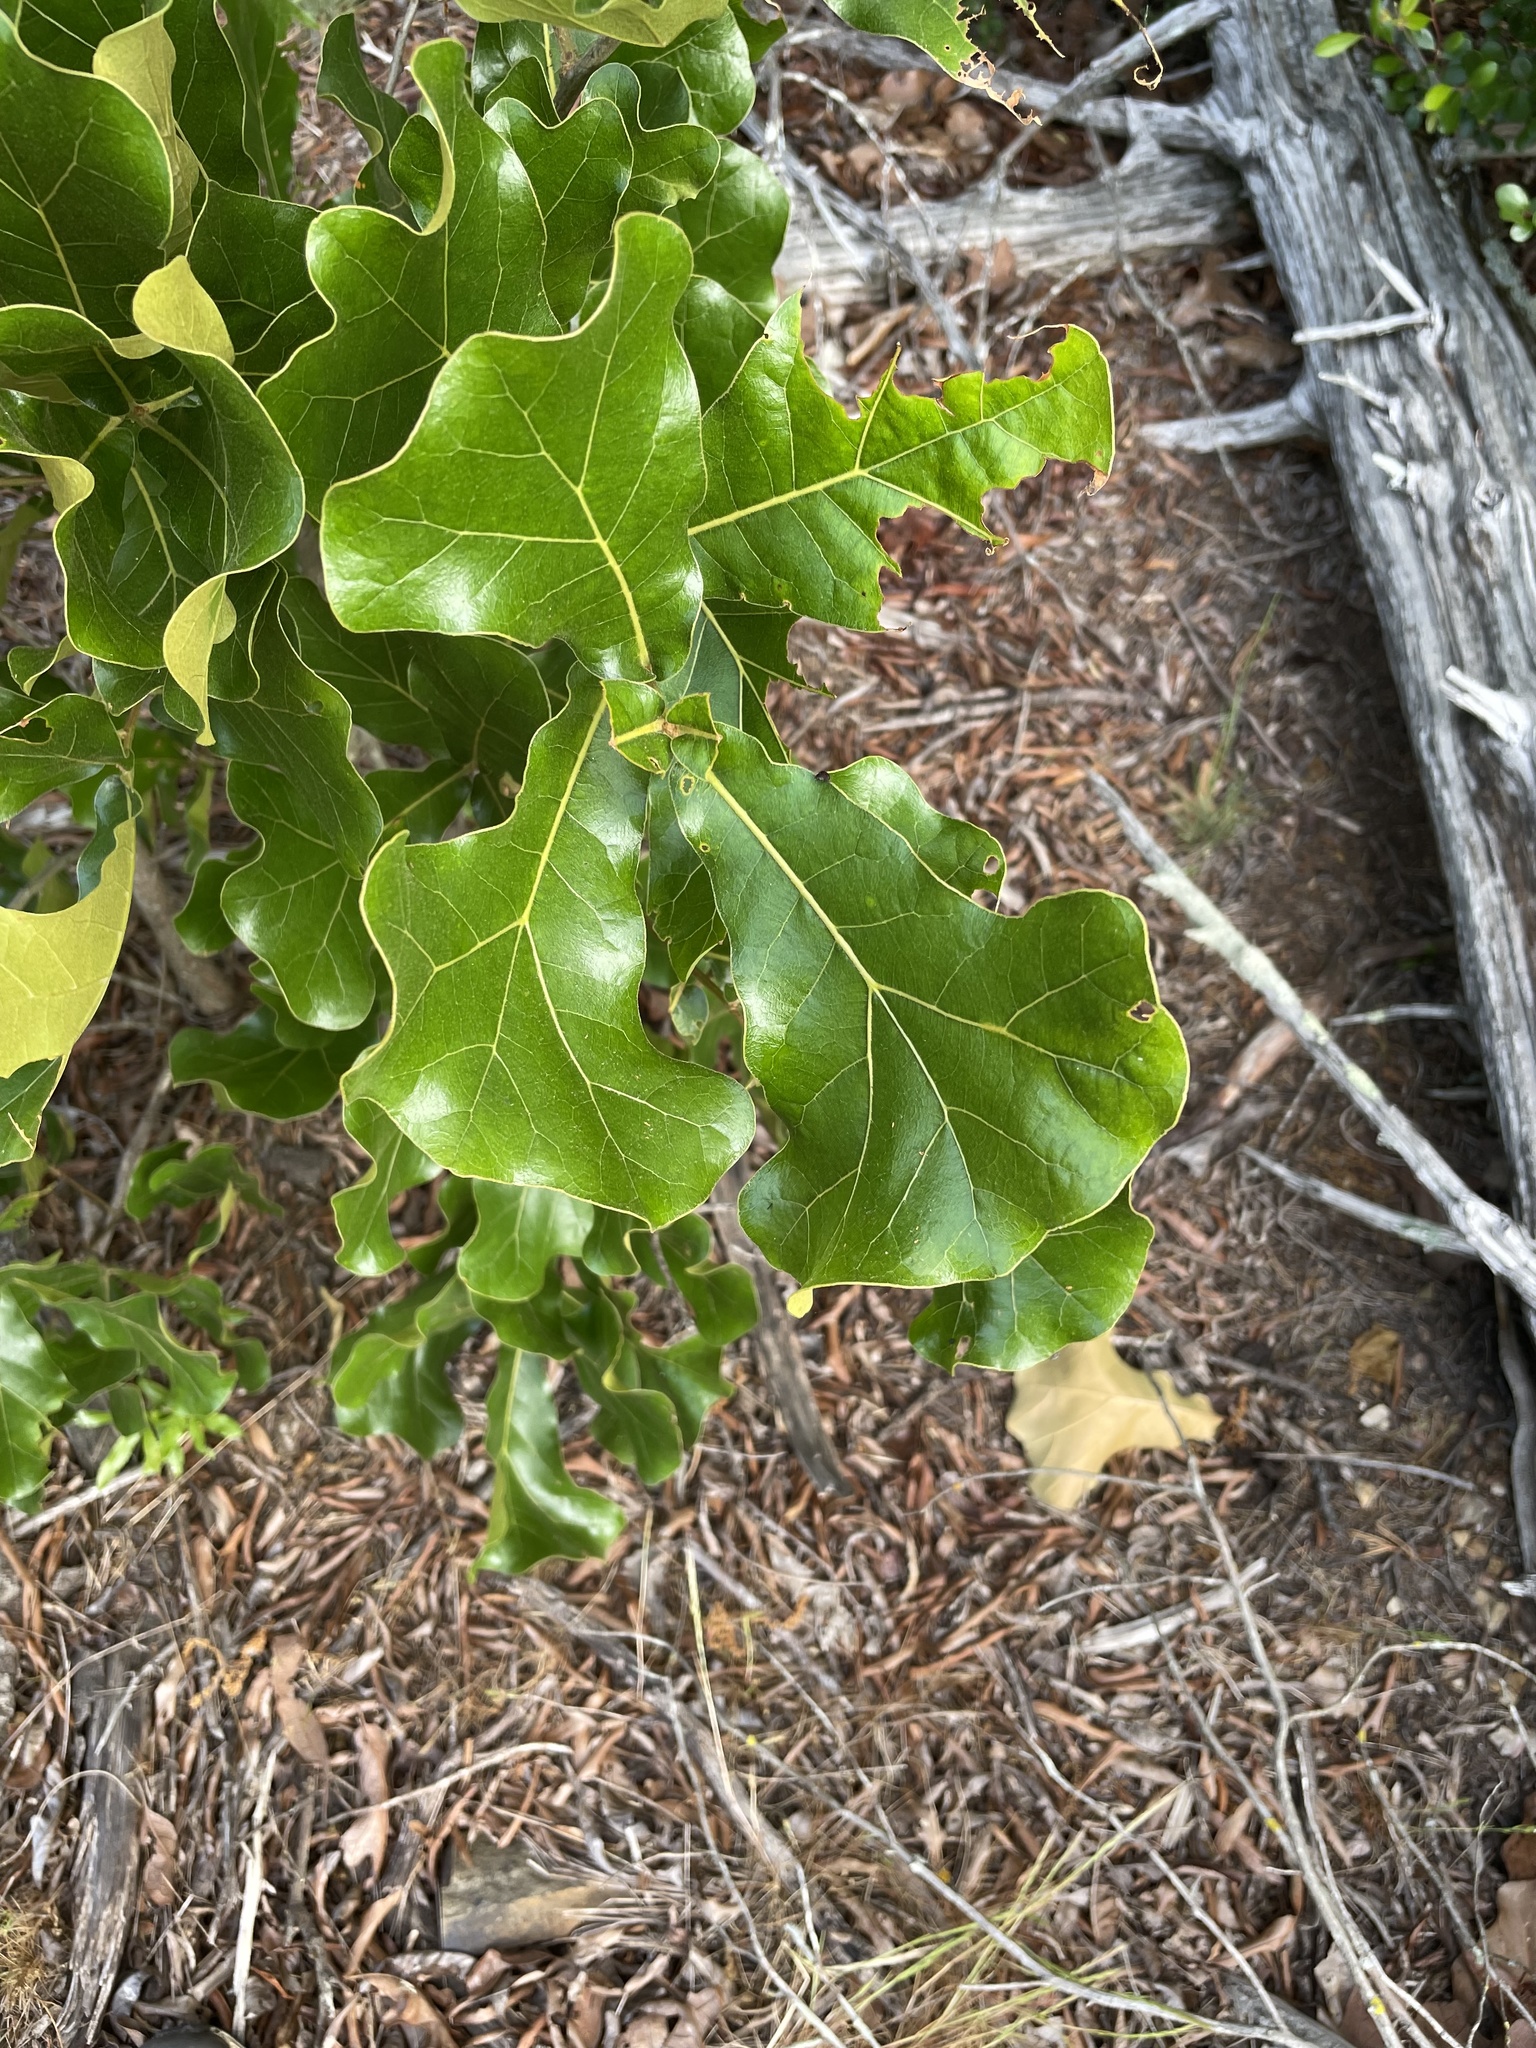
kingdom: Plantae
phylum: Tracheophyta
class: Magnoliopsida
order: Fagales
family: Fagaceae
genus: Quercus
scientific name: Quercus marilandica
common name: Blackjack oak
